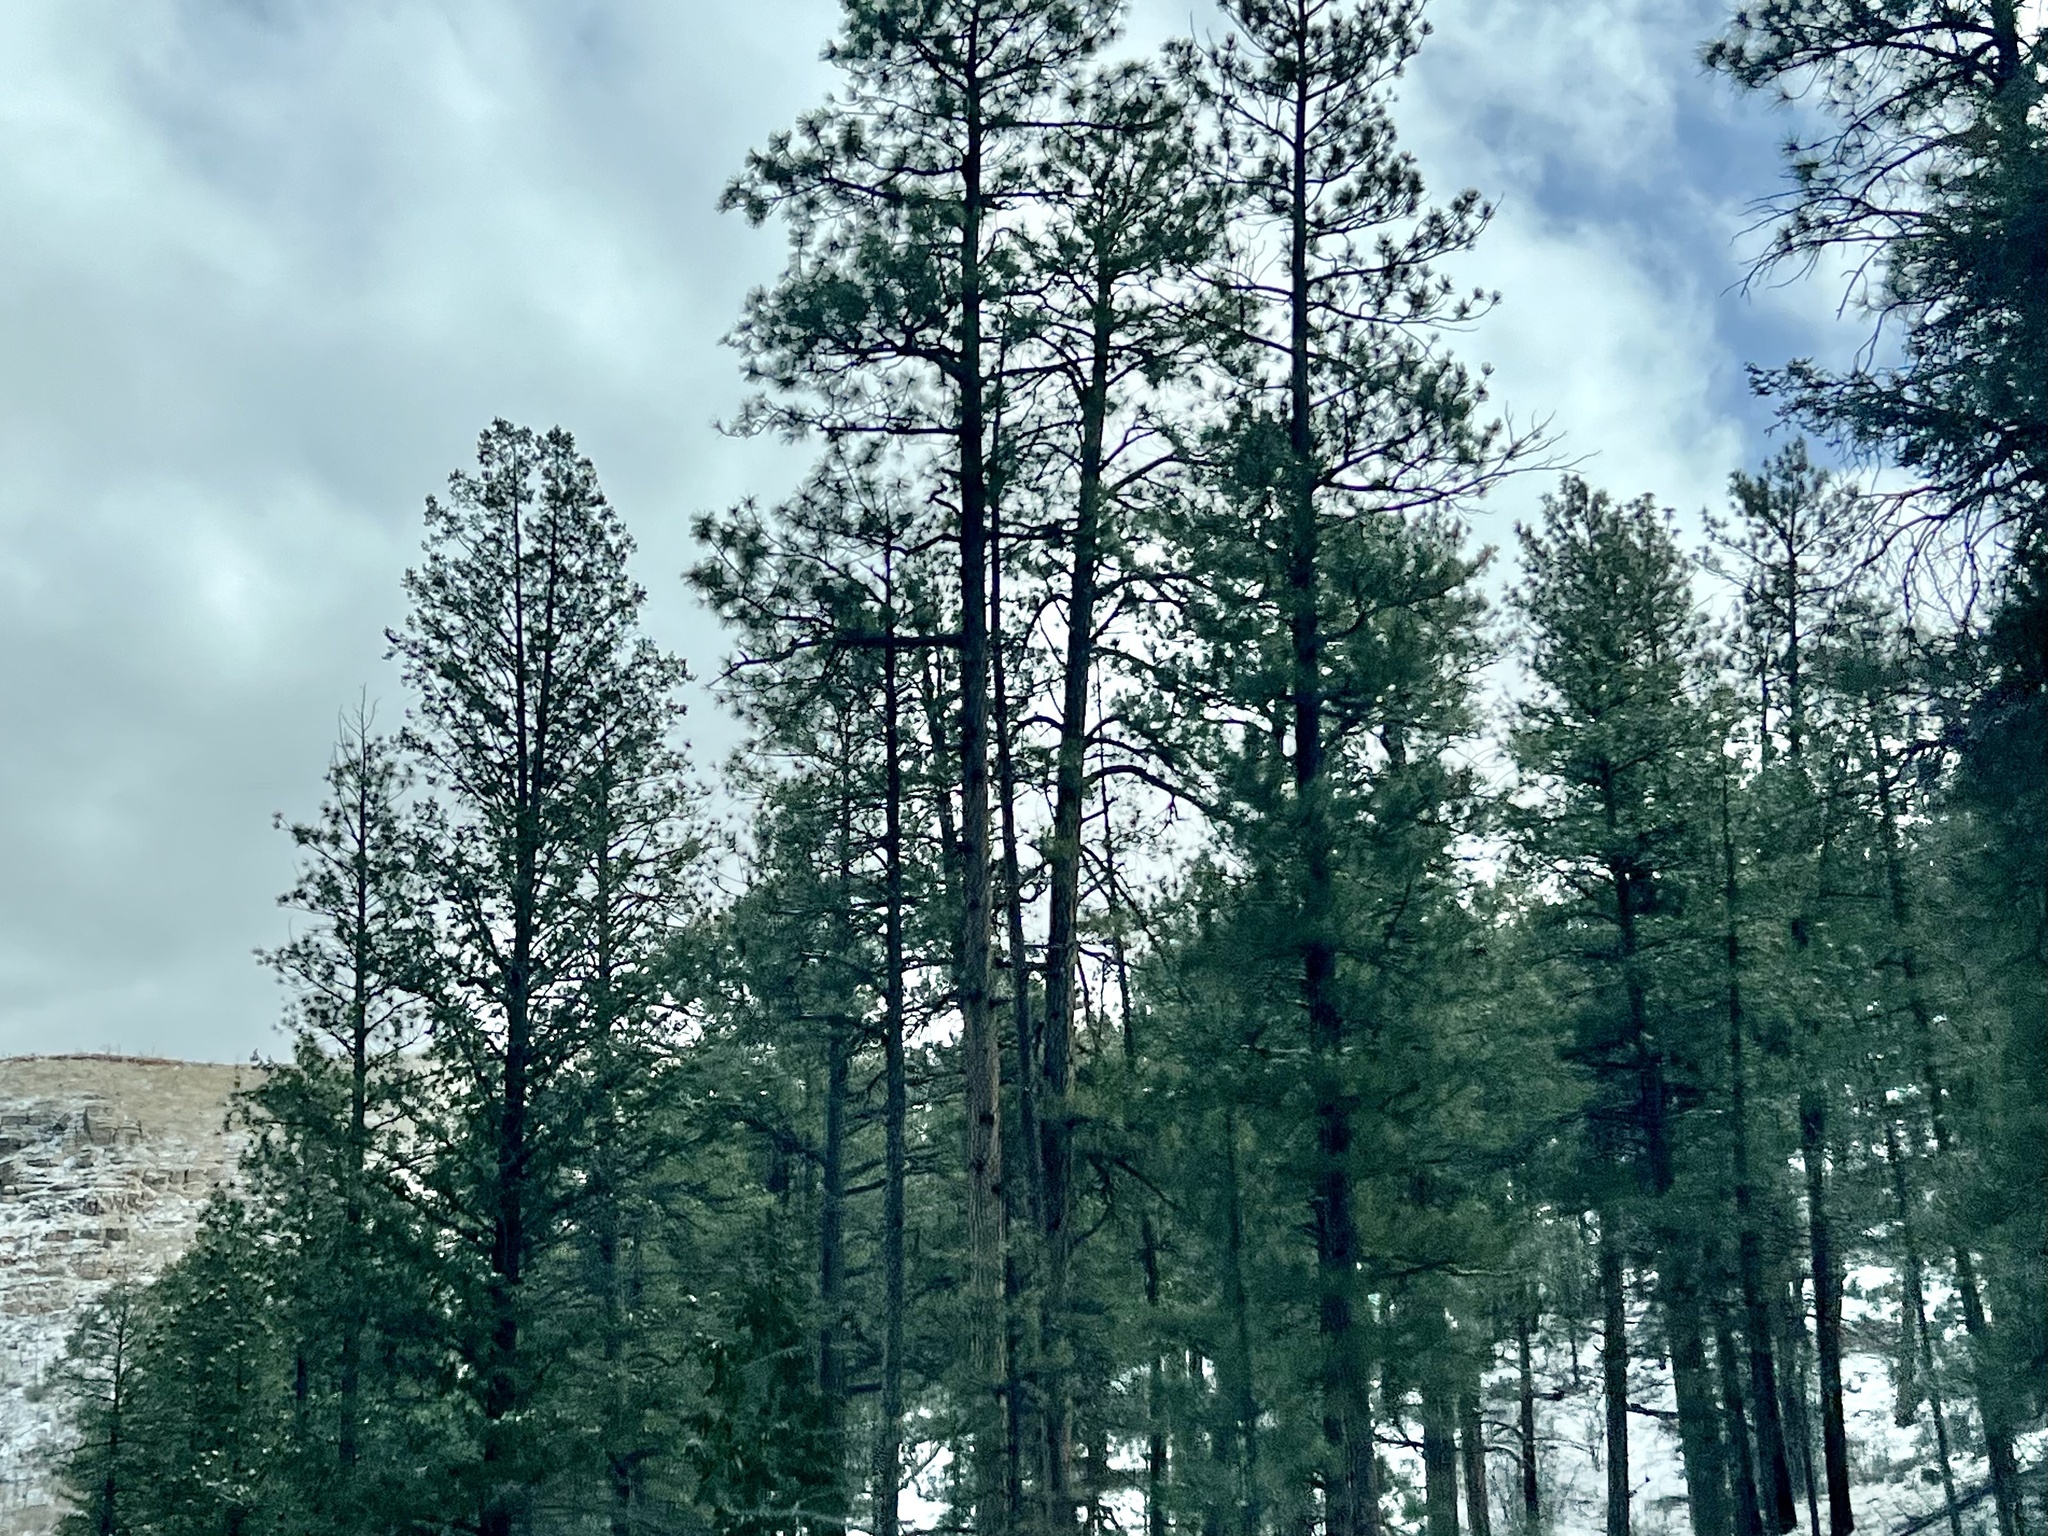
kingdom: Plantae
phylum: Tracheophyta
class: Pinopsida
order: Pinales
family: Pinaceae
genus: Pinus
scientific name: Pinus ponderosa
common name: Western yellow-pine
